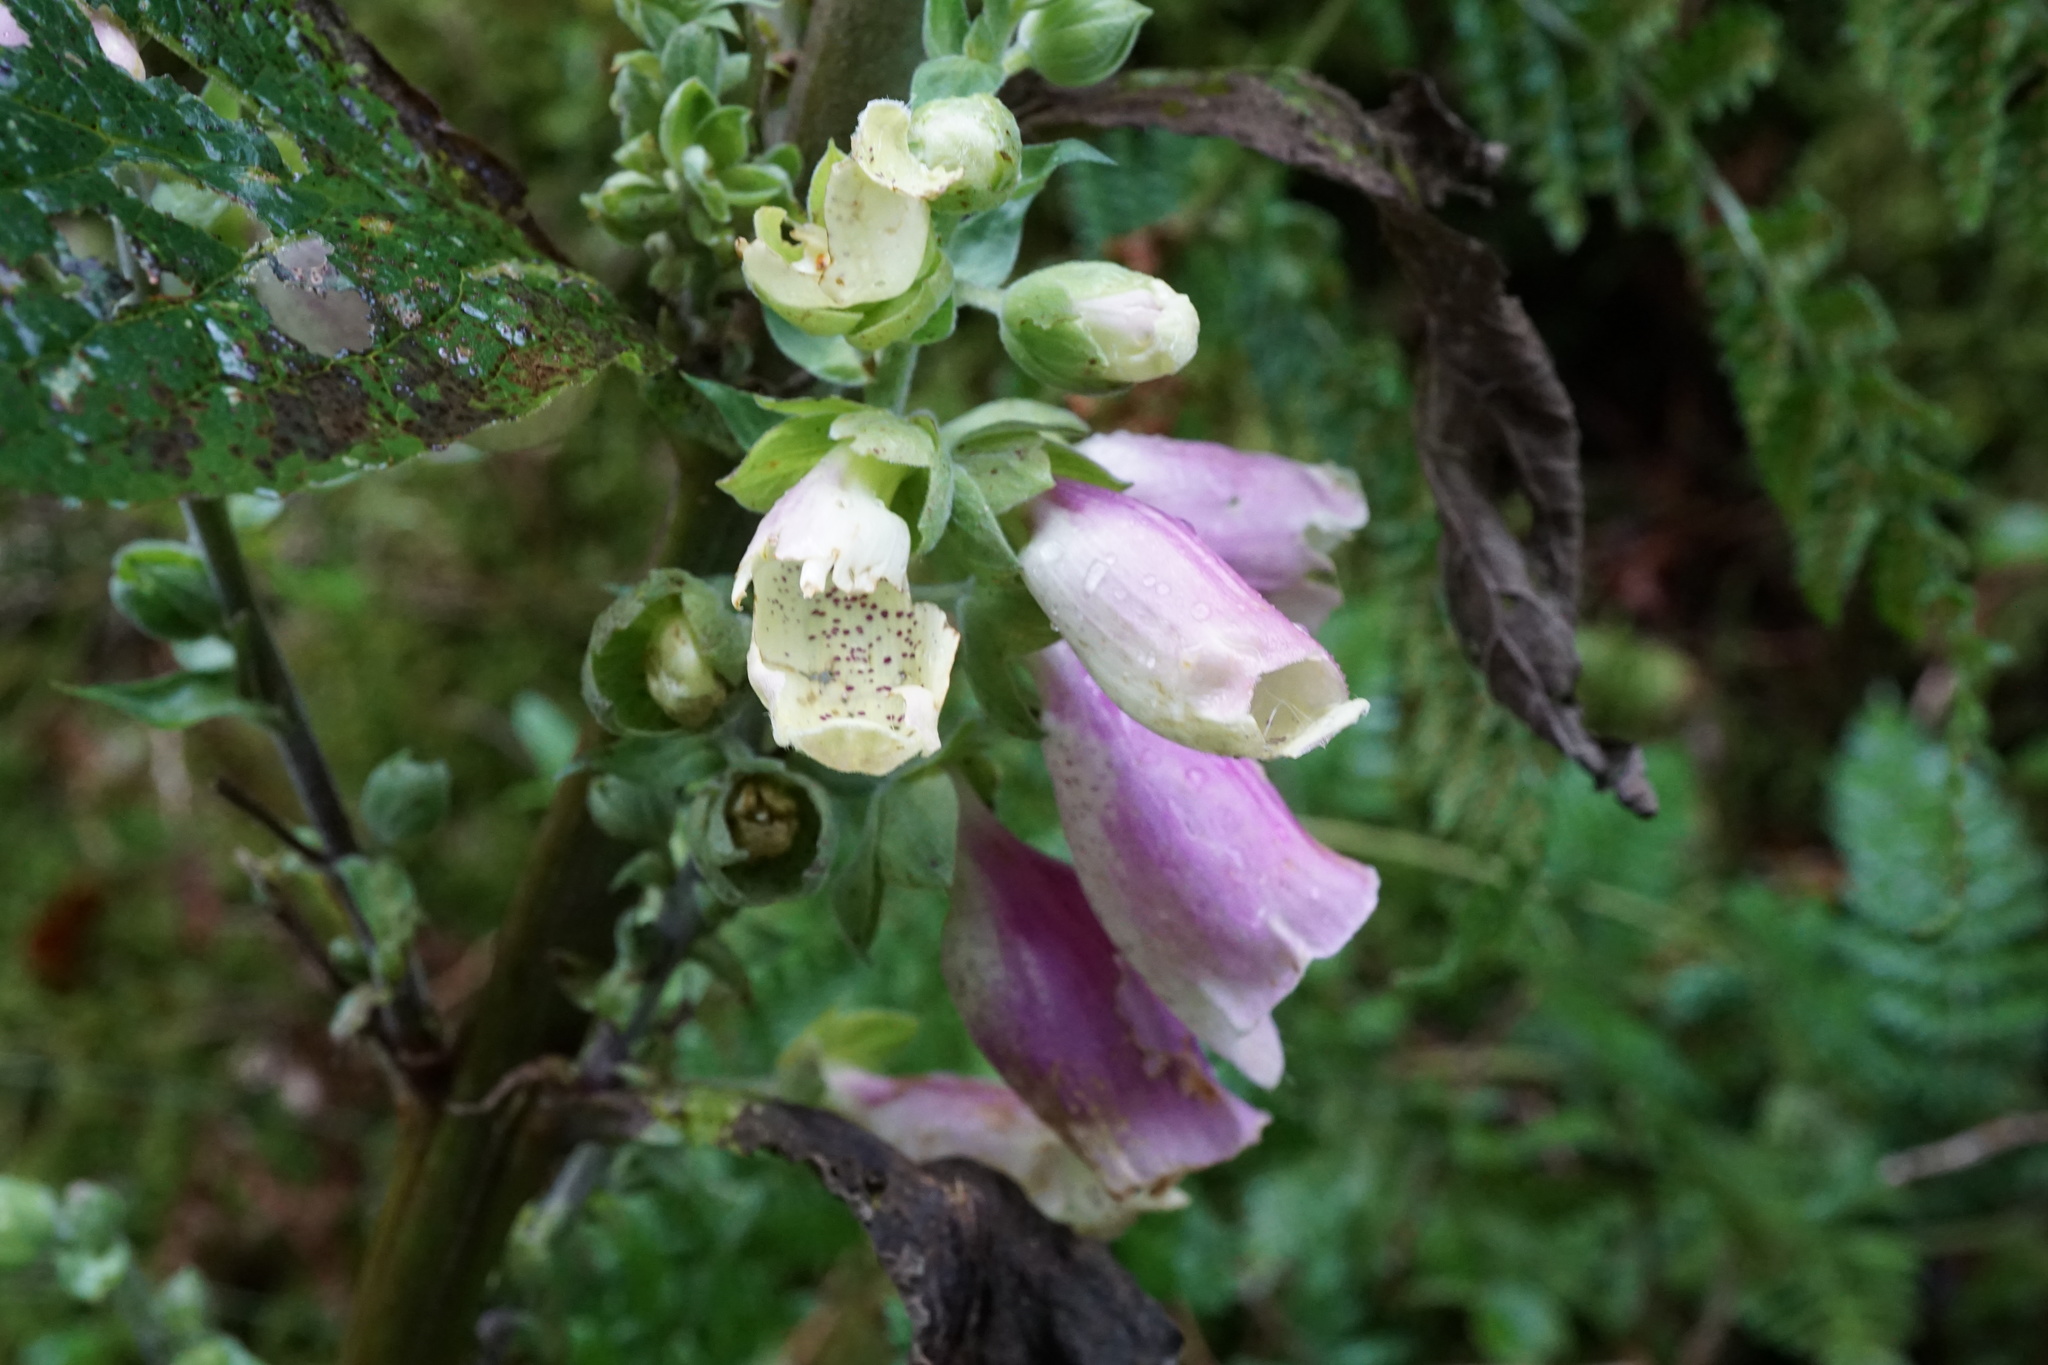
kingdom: Plantae
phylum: Tracheophyta
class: Magnoliopsida
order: Lamiales
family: Plantaginaceae
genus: Digitalis
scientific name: Digitalis purpurea
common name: Foxglove
